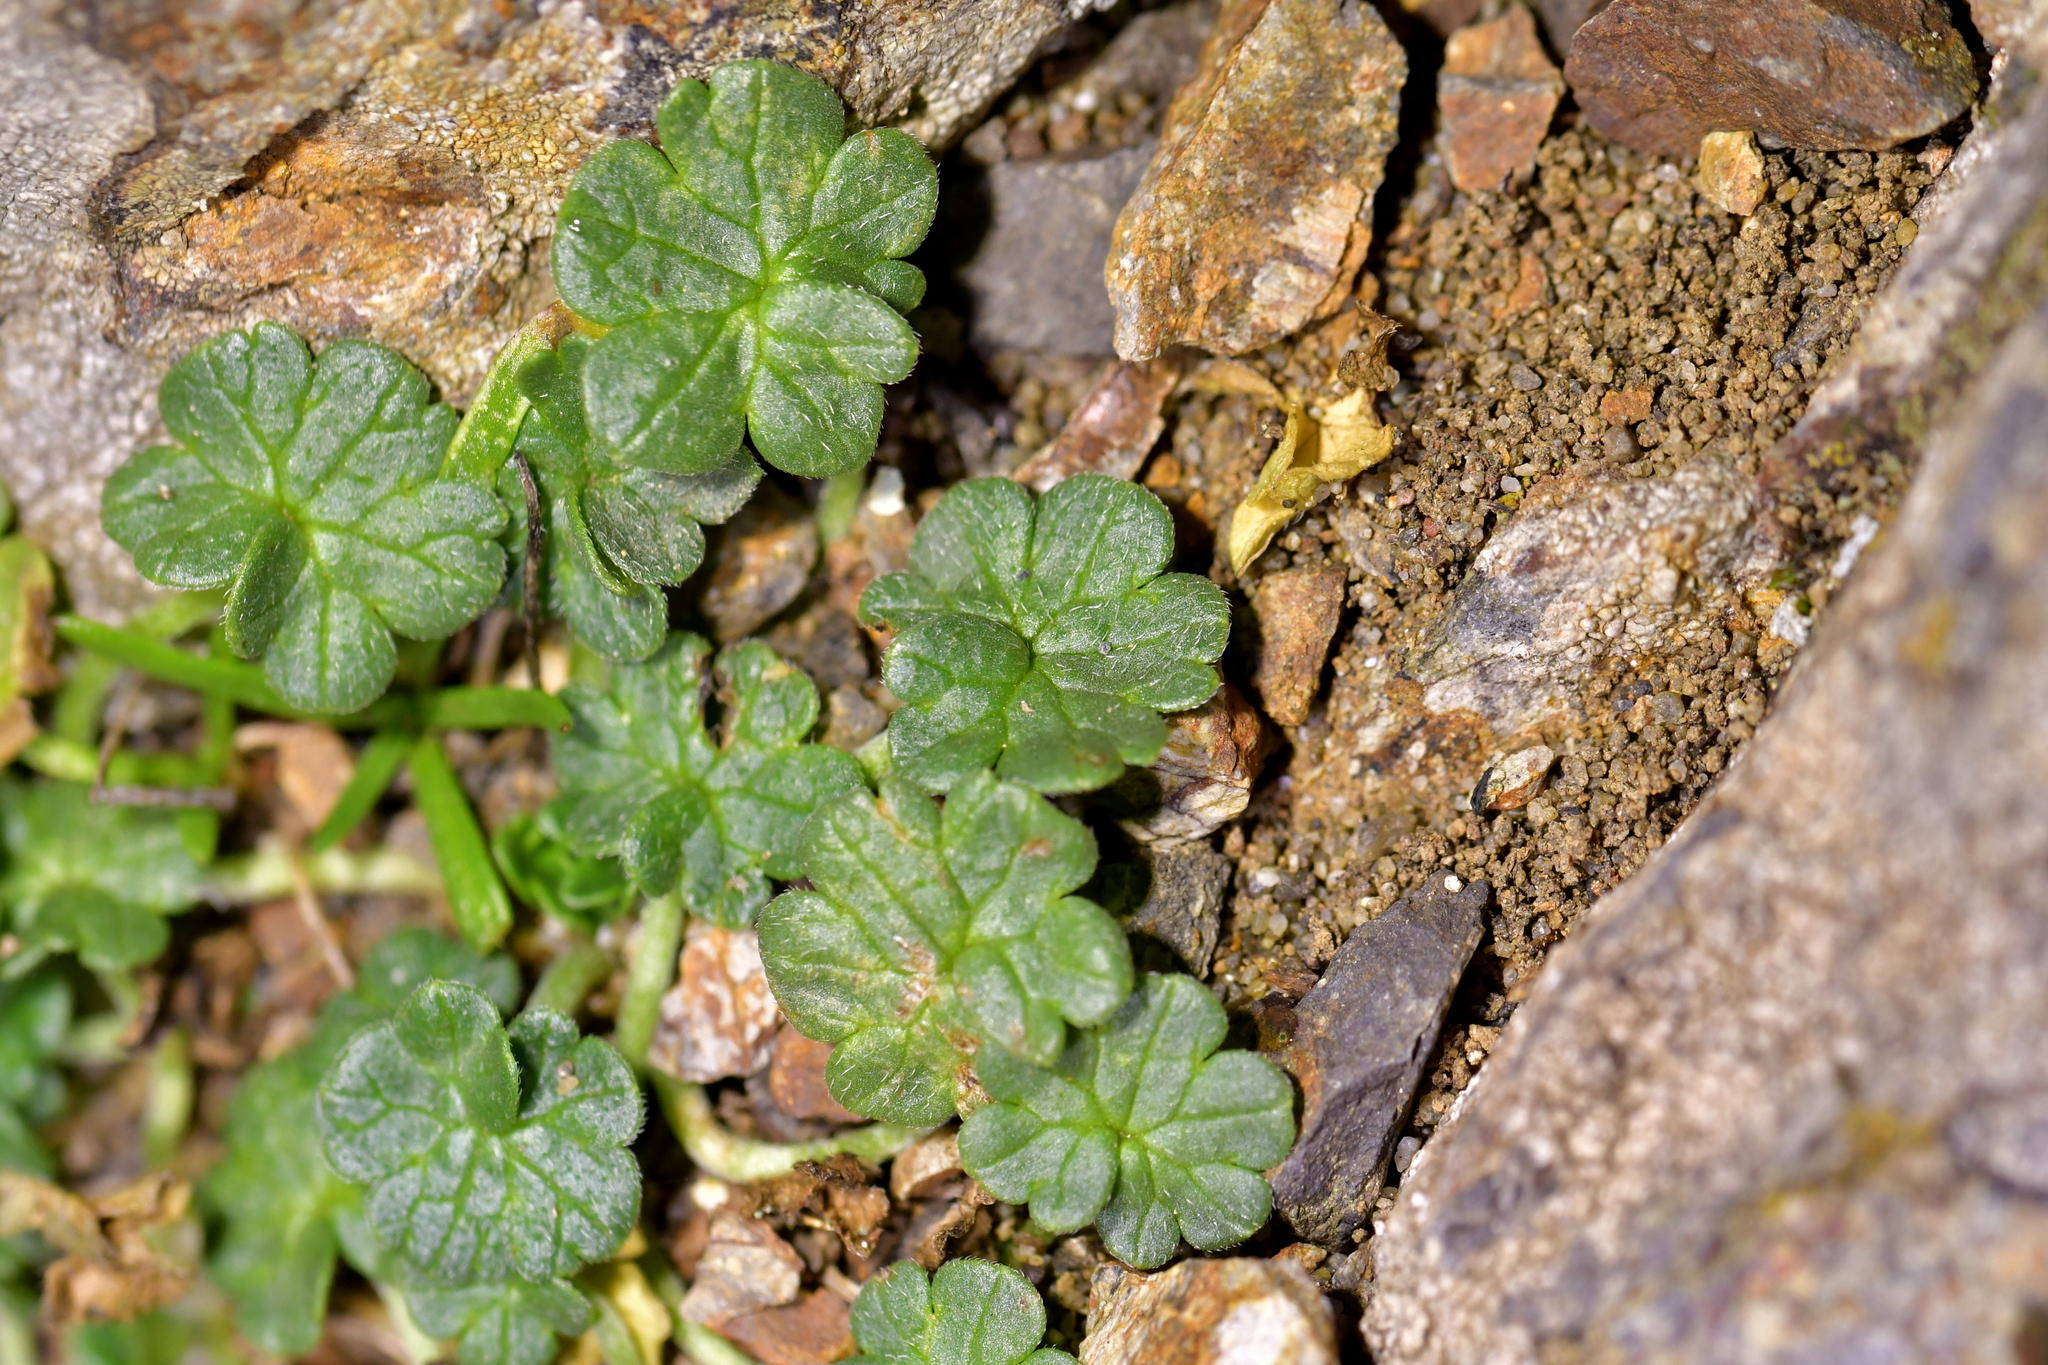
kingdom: Plantae
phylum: Tracheophyta
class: Magnoliopsida
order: Geraniales
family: Geraniaceae
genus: Geranium
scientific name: Geranium brevicaule
